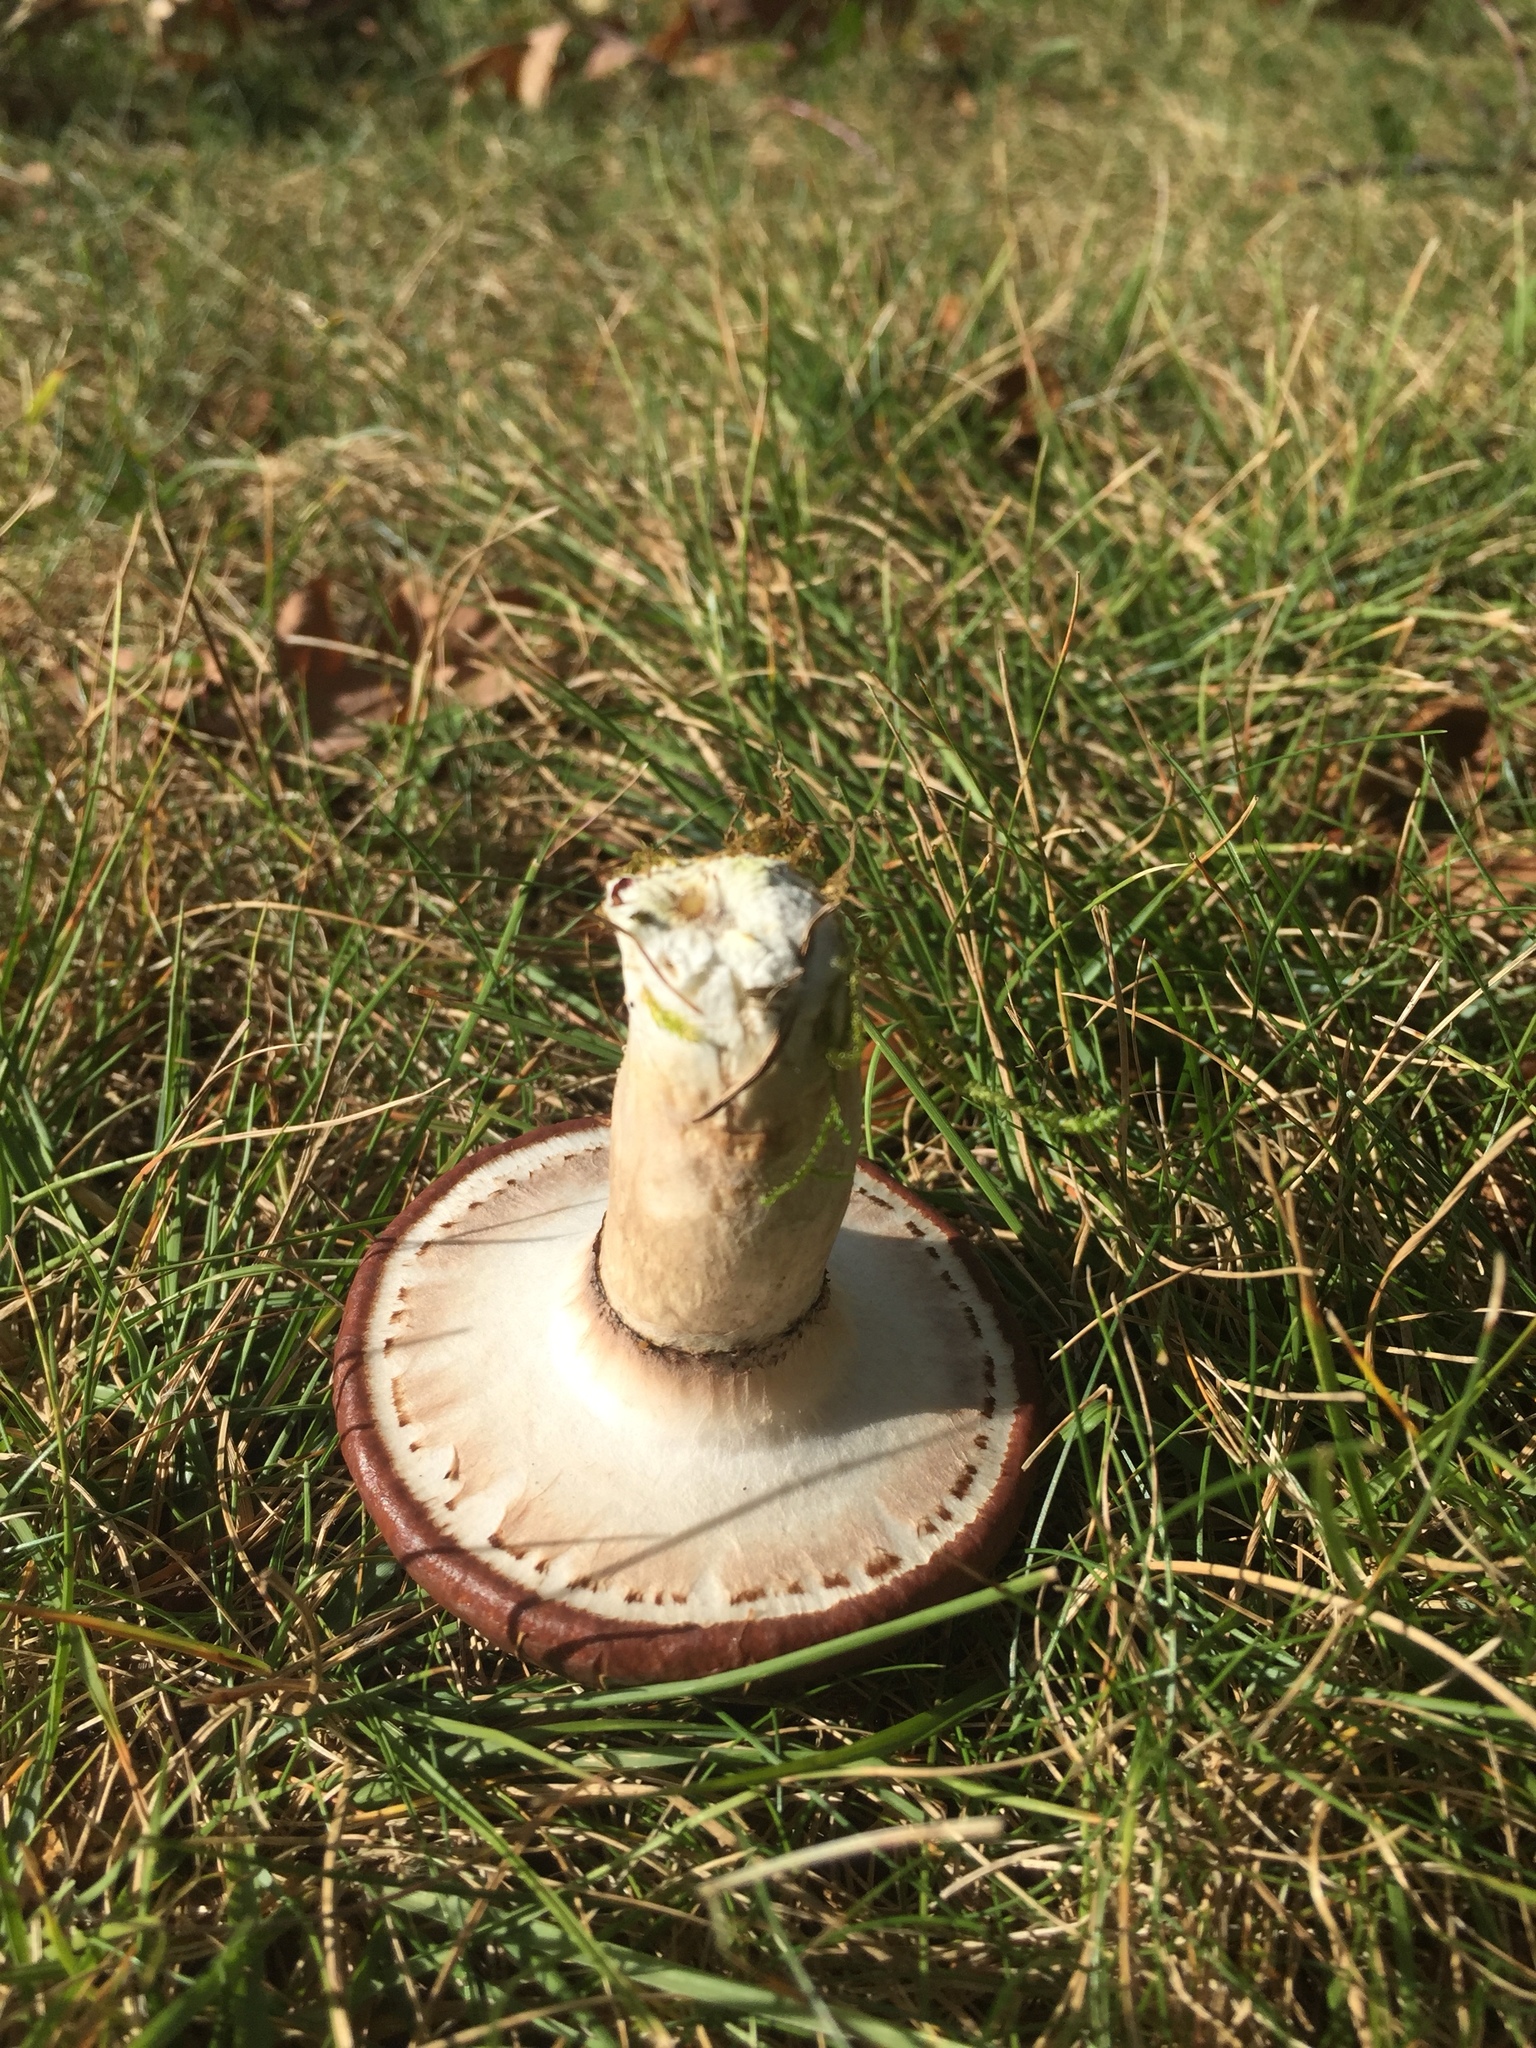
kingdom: Fungi
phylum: Basidiomycota
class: Agaricomycetes
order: Boletales
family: Suillaceae
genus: Suillus
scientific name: Suillus luteus
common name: Slippery jack
